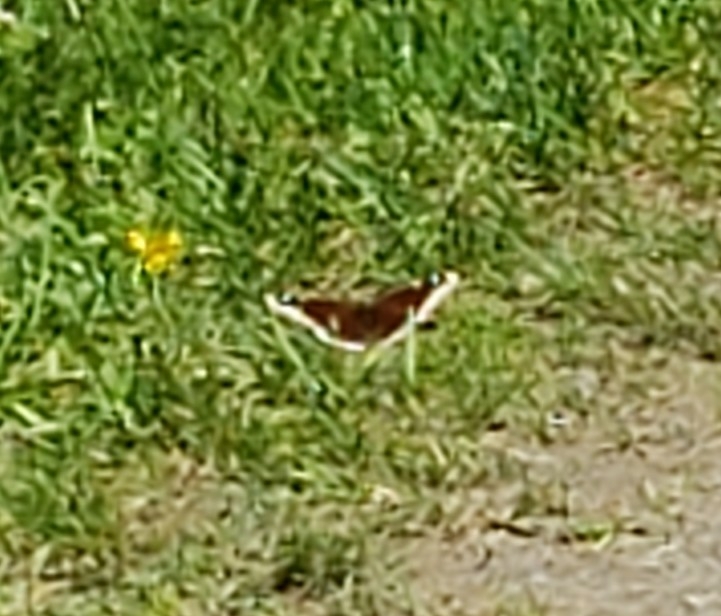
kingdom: Animalia
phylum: Arthropoda
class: Insecta
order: Lepidoptera
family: Nymphalidae
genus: Nymphalis
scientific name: Nymphalis antiopa
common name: Camberwell beauty
